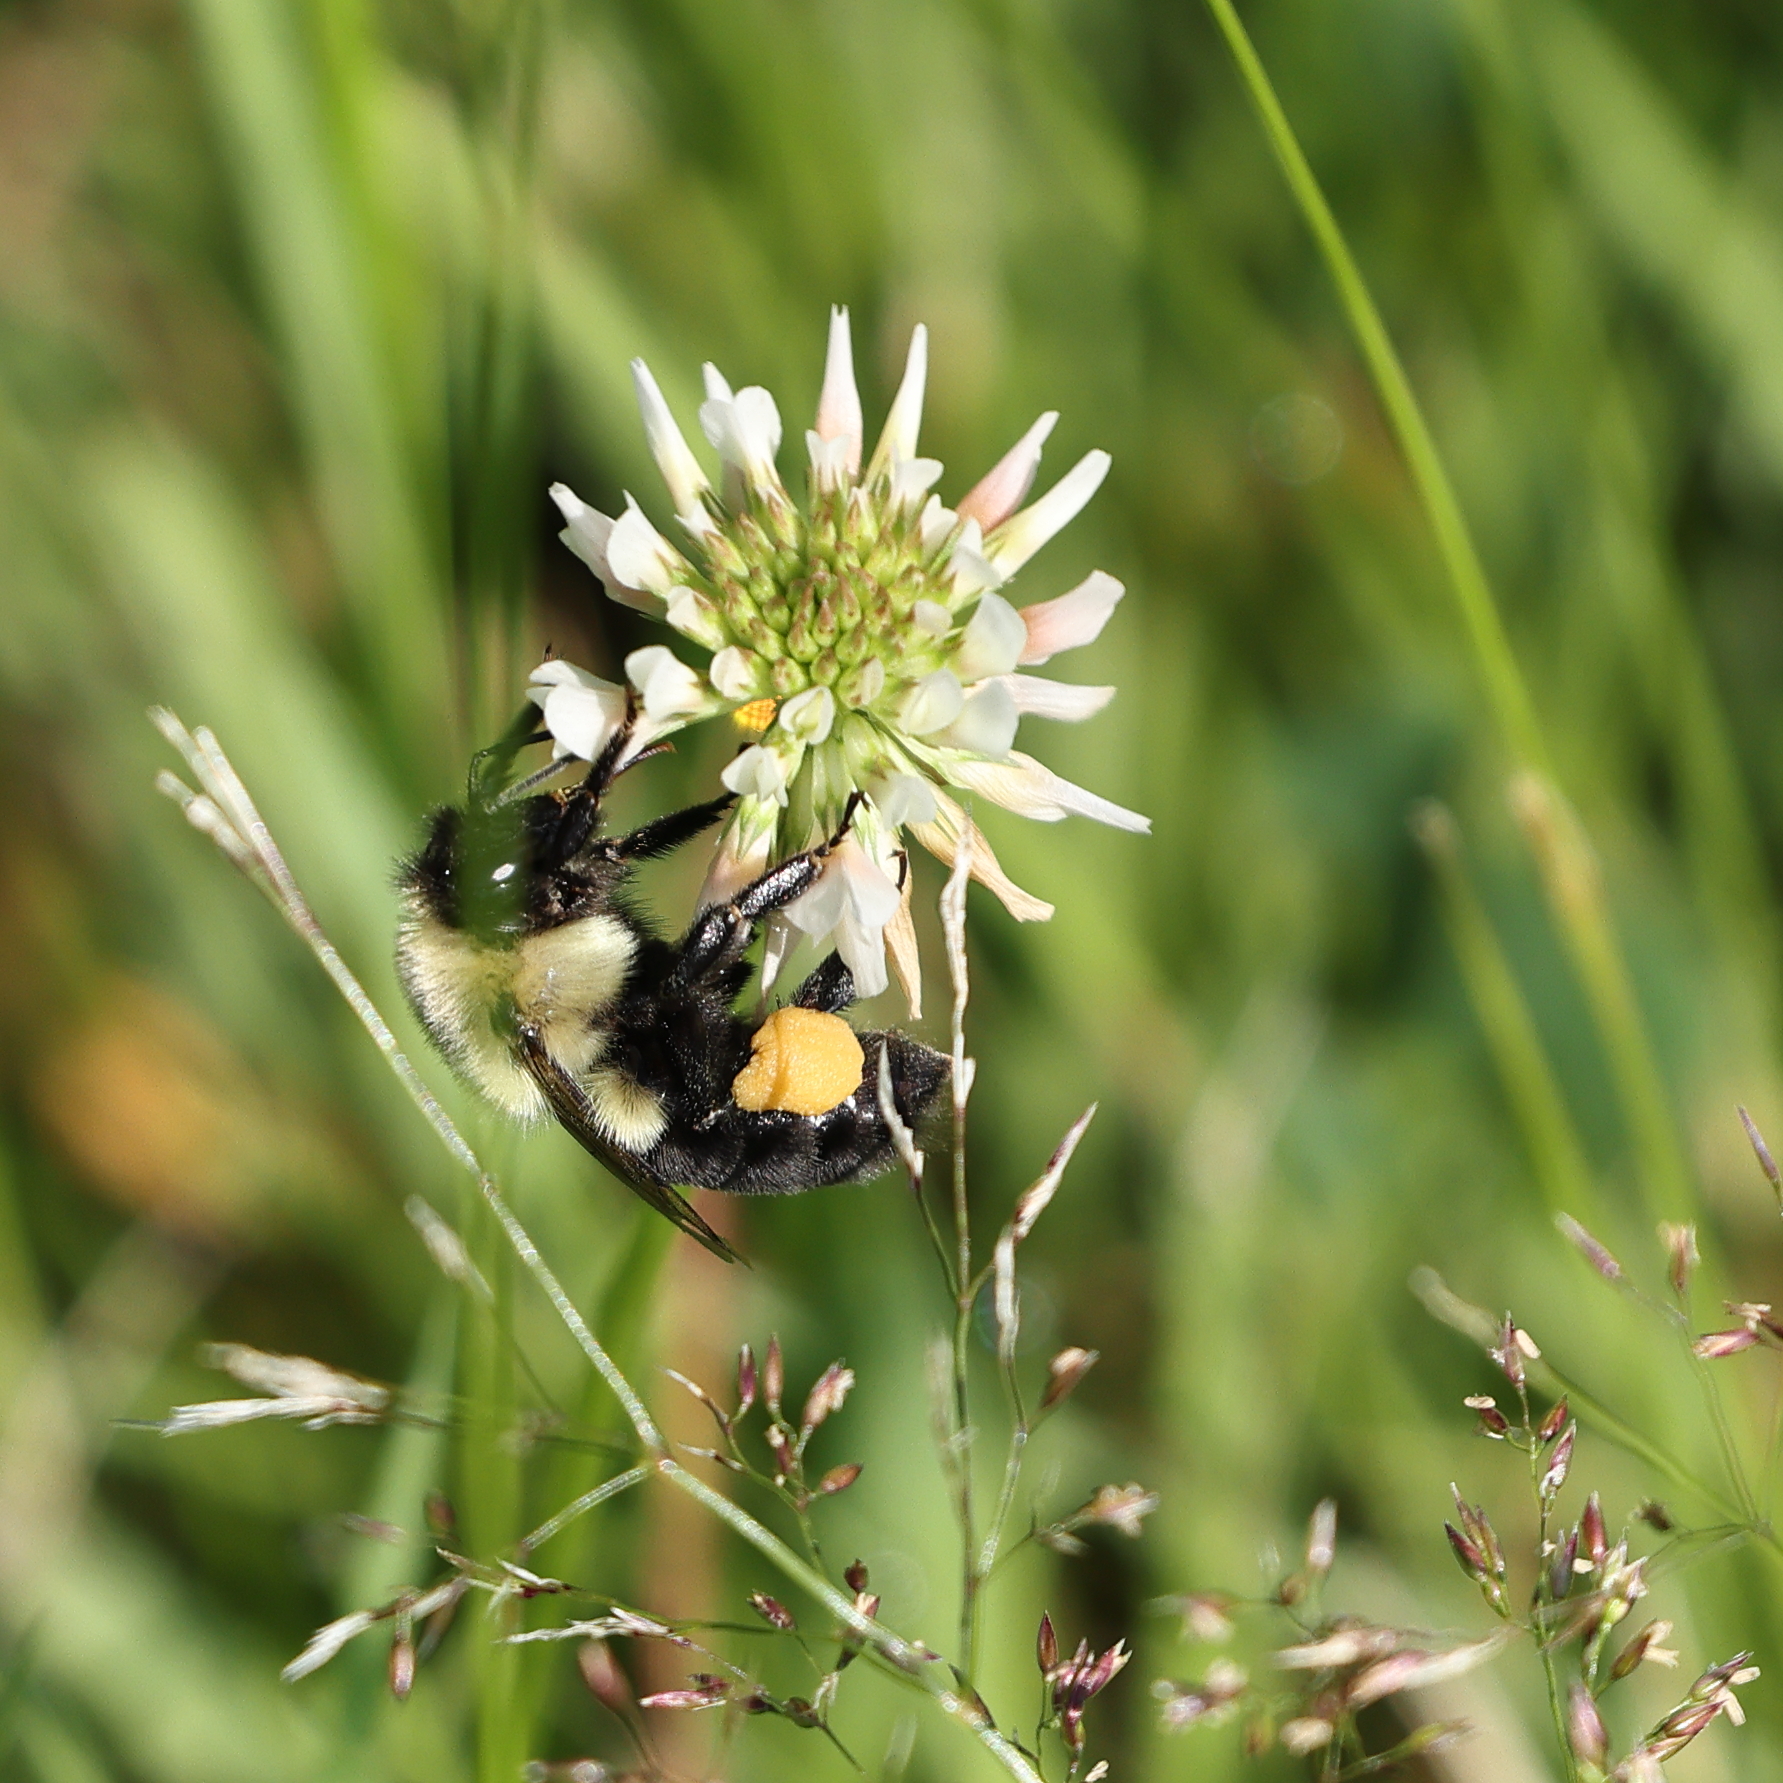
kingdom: Animalia
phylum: Arthropoda
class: Insecta
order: Hymenoptera
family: Apidae
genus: Bombus
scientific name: Bombus impatiens
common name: Common eastern bumble bee
